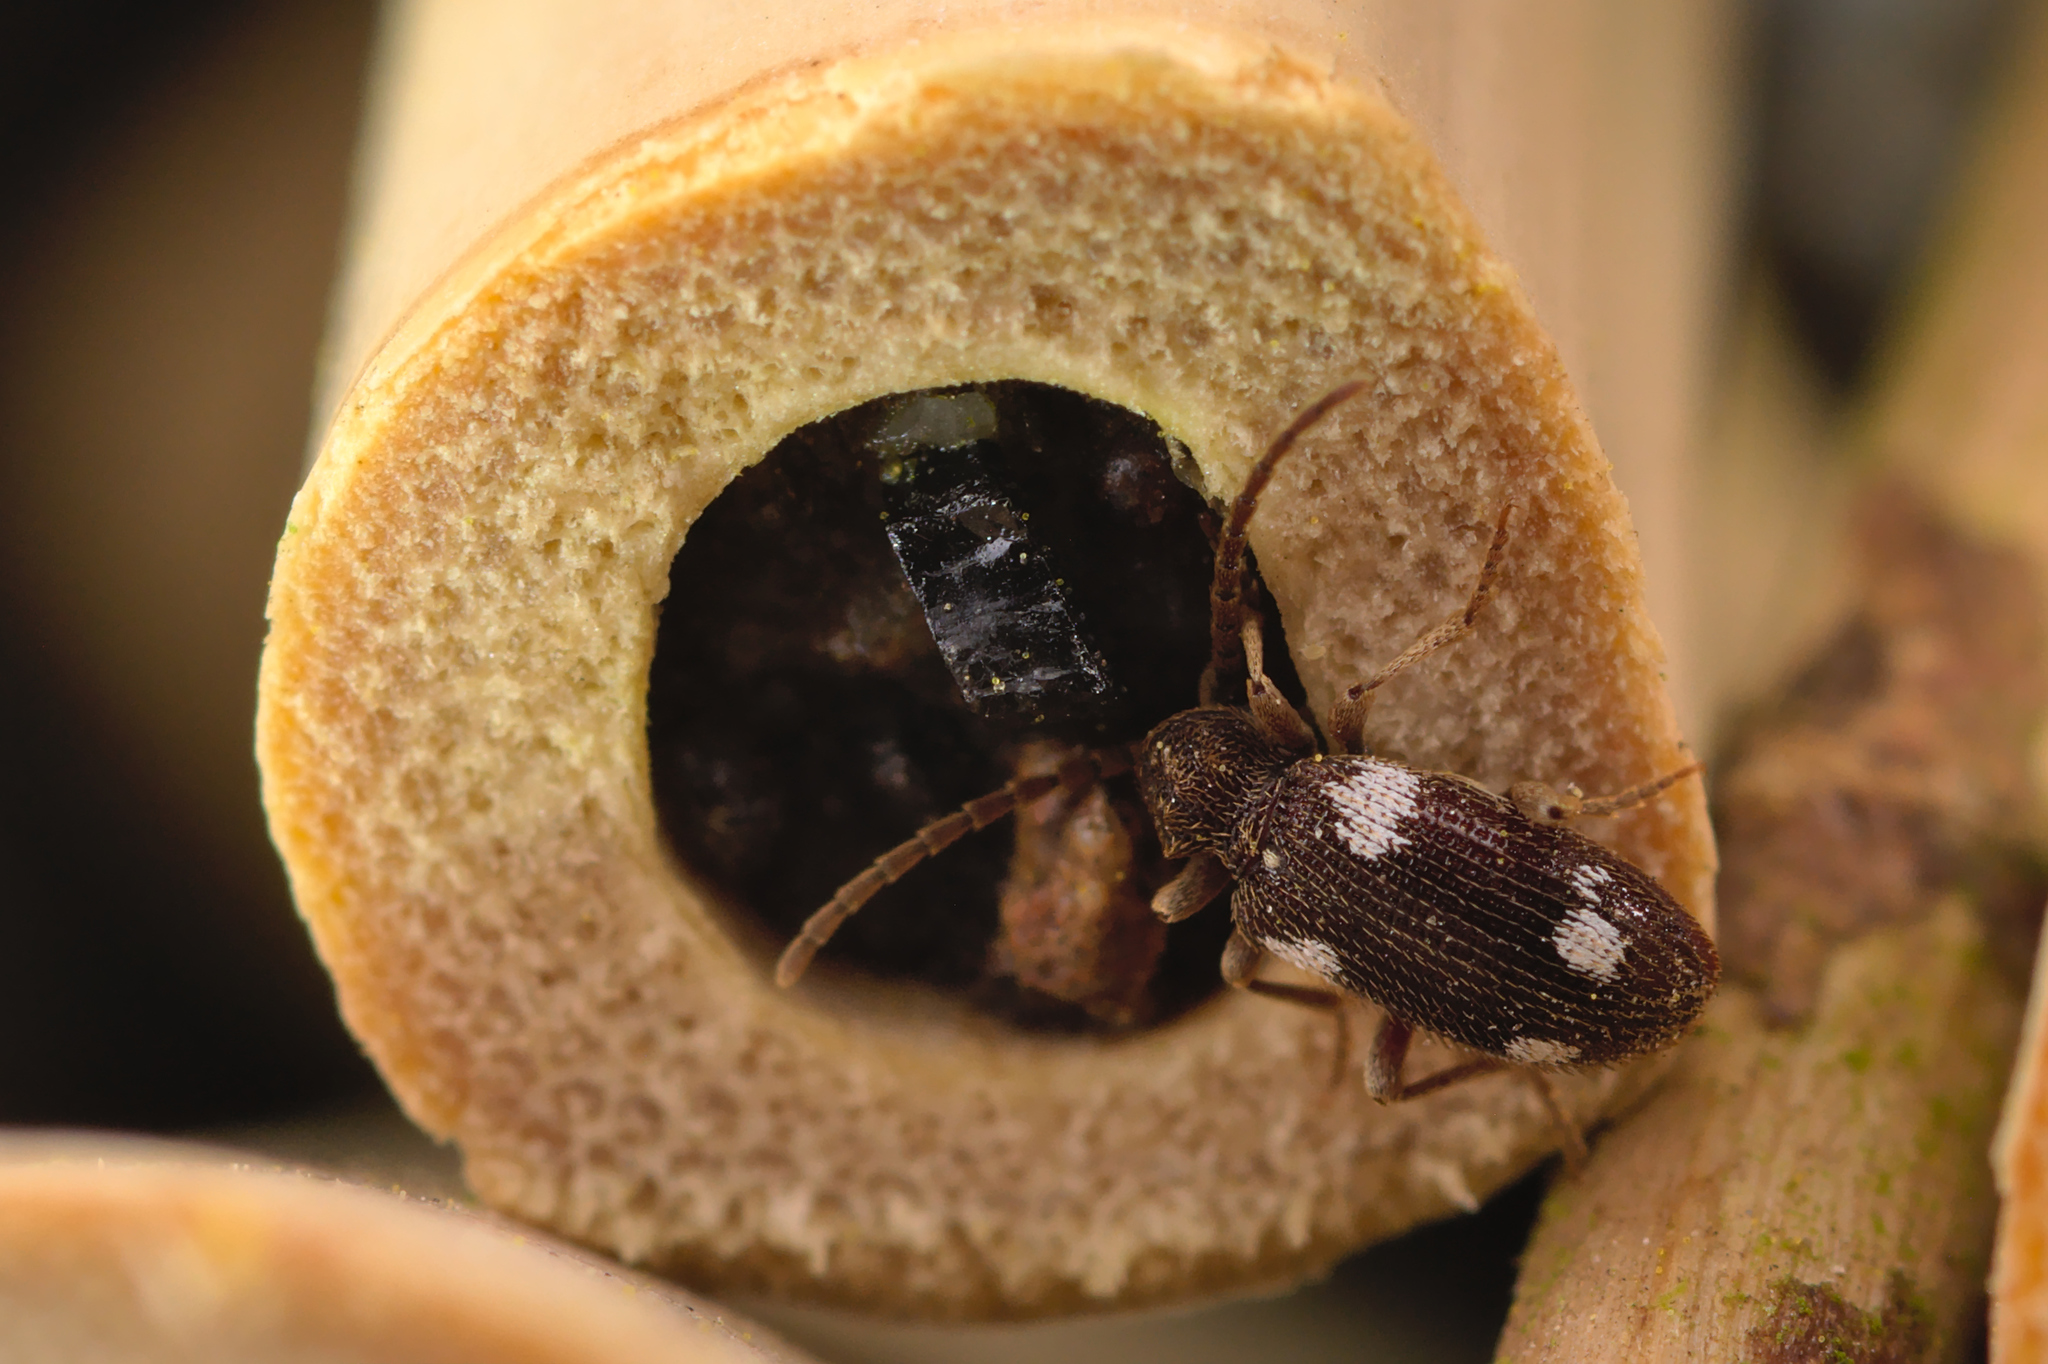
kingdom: Animalia
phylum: Arthropoda
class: Insecta
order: Coleoptera
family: Ptinidae
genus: Ptinus
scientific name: Ptinus sexpunctatus
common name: Six-spotted spider beetle
